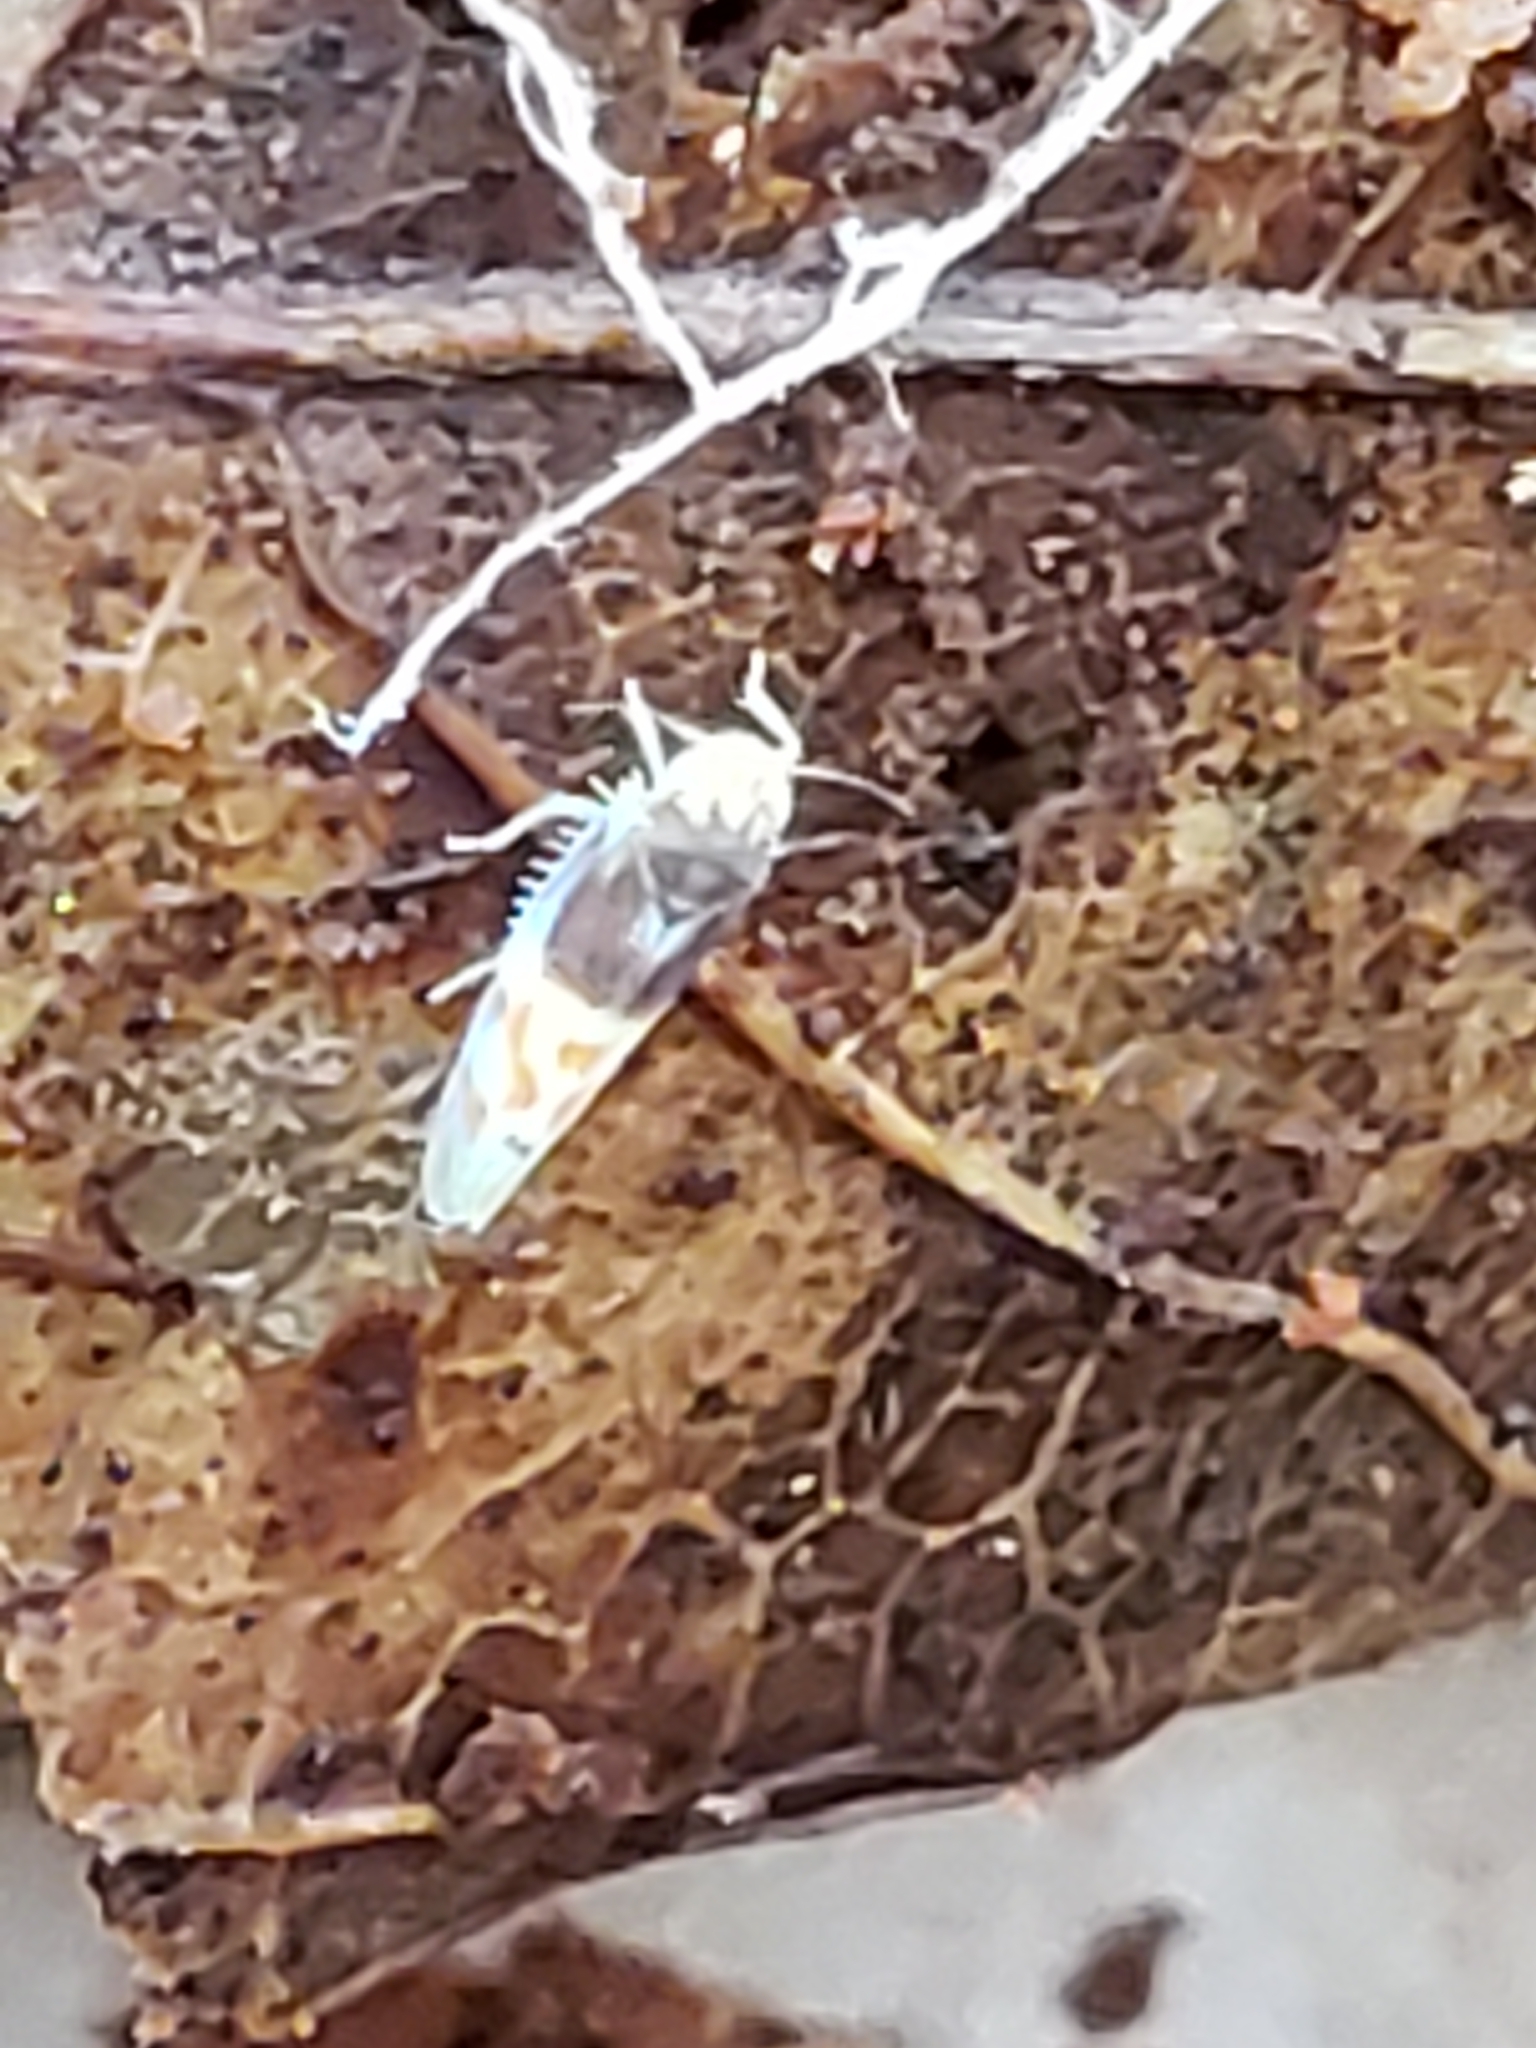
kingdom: Animalia
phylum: Arthropoda
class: Insecta
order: Hemiptera
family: Cicadellidae
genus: Eratoneura
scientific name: Eratoneura affinis
